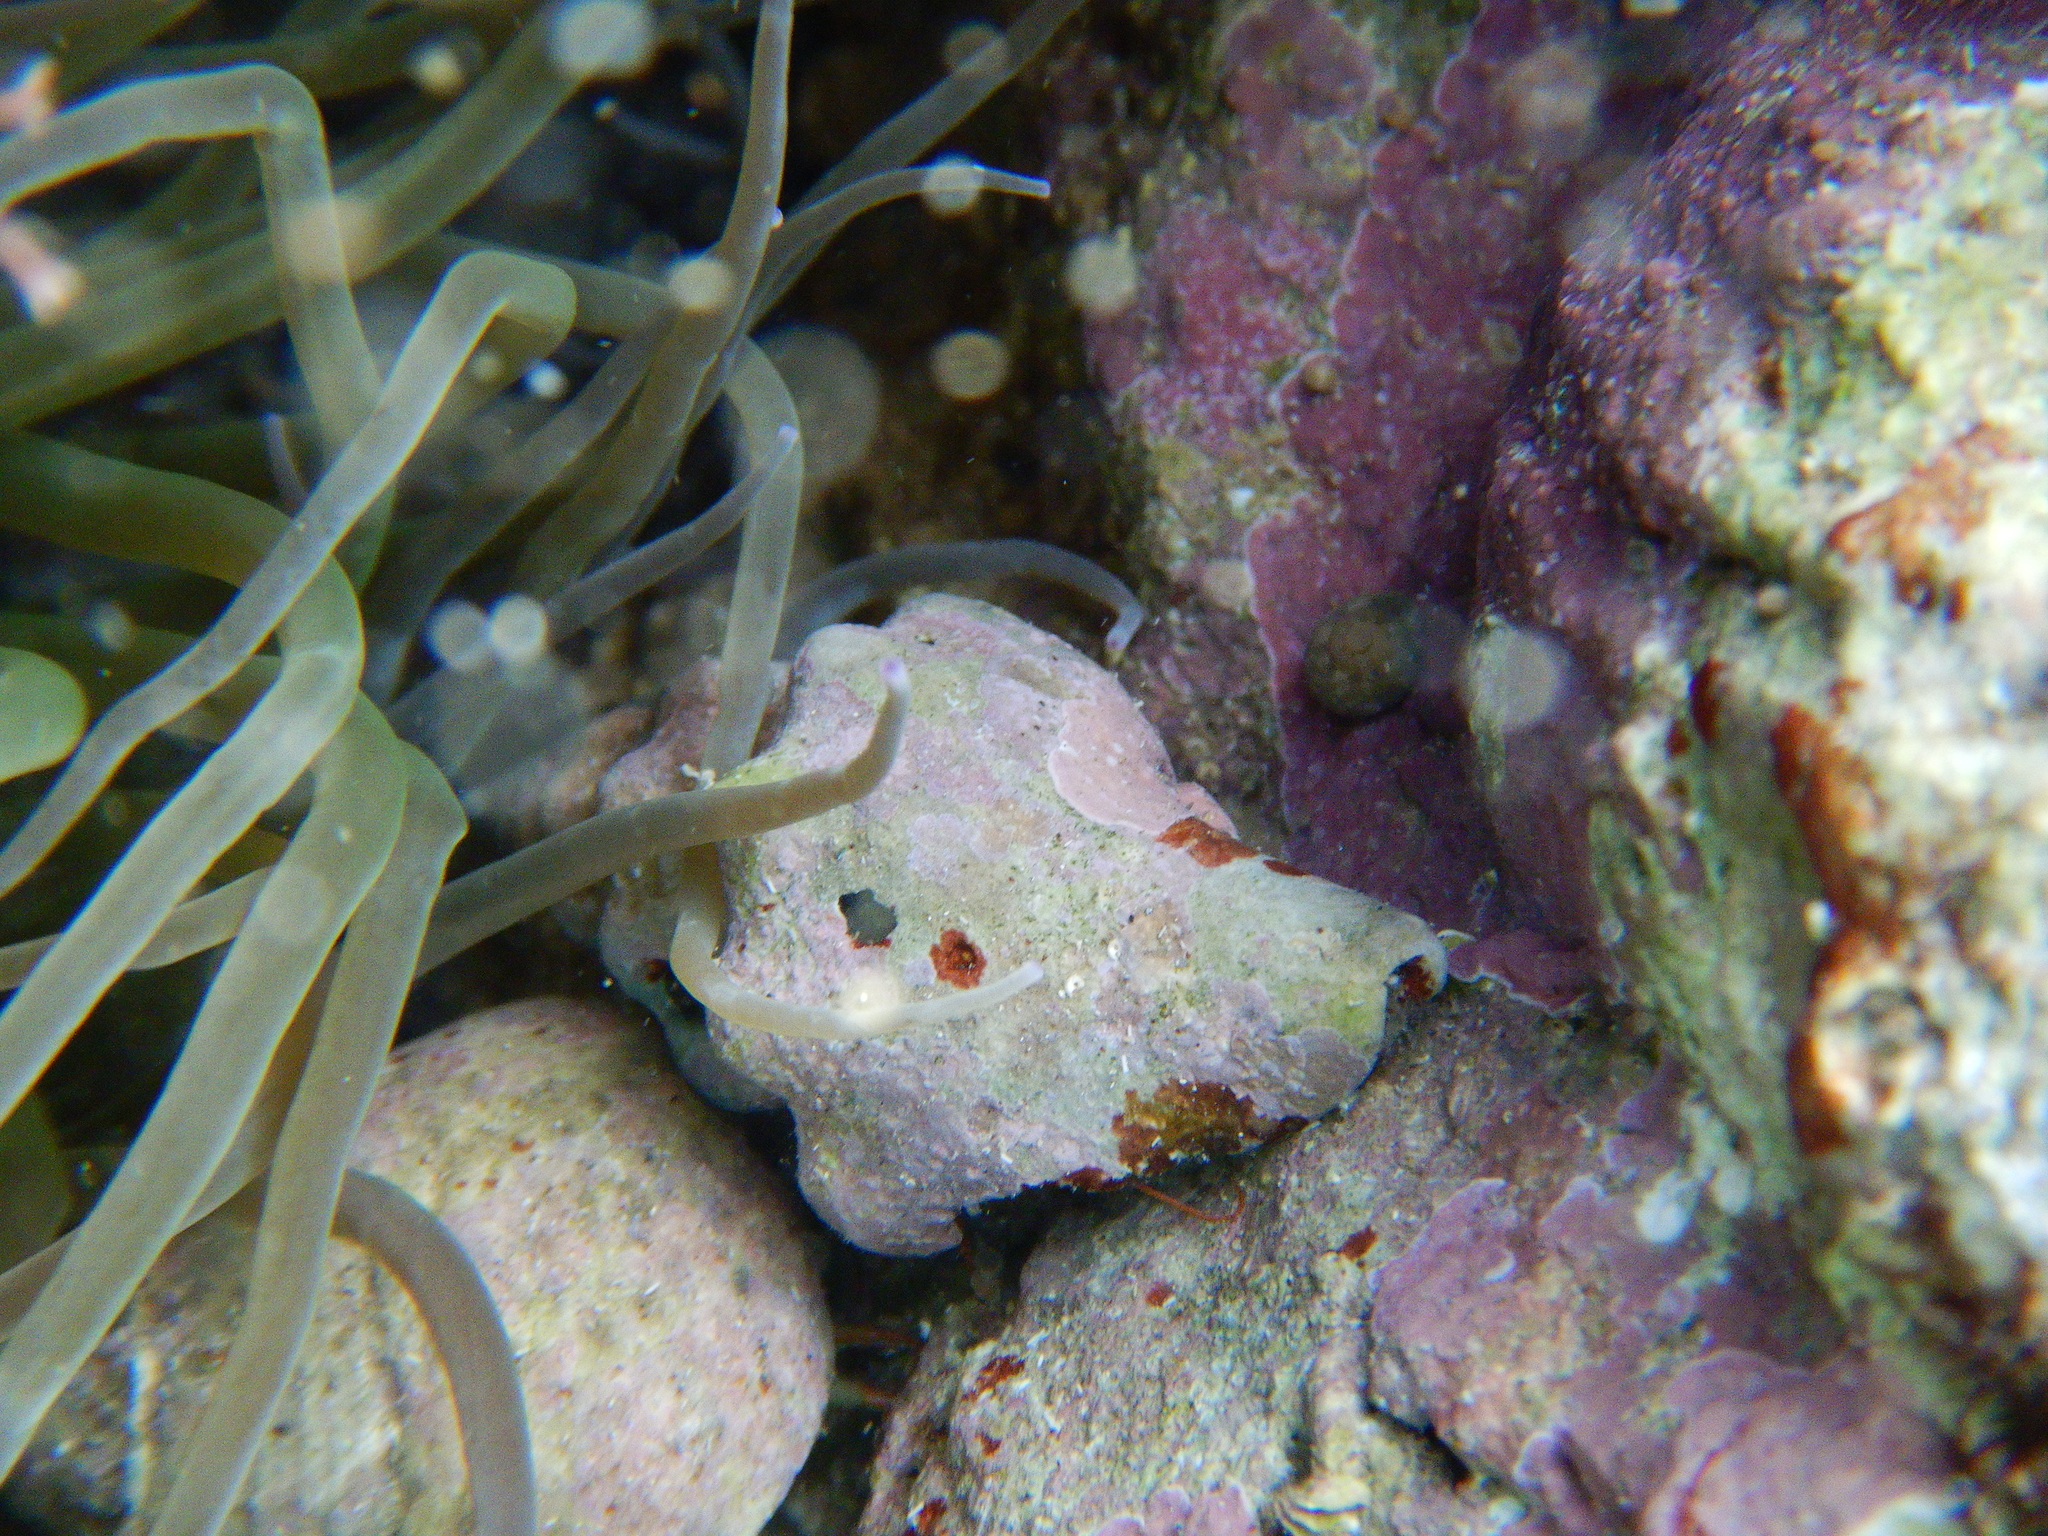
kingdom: Animalia
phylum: Mollusca
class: Gastropoda
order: Neogastropoda
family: Fasciolariidae
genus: Tarantinaea
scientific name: Tarantinaea lignaria
